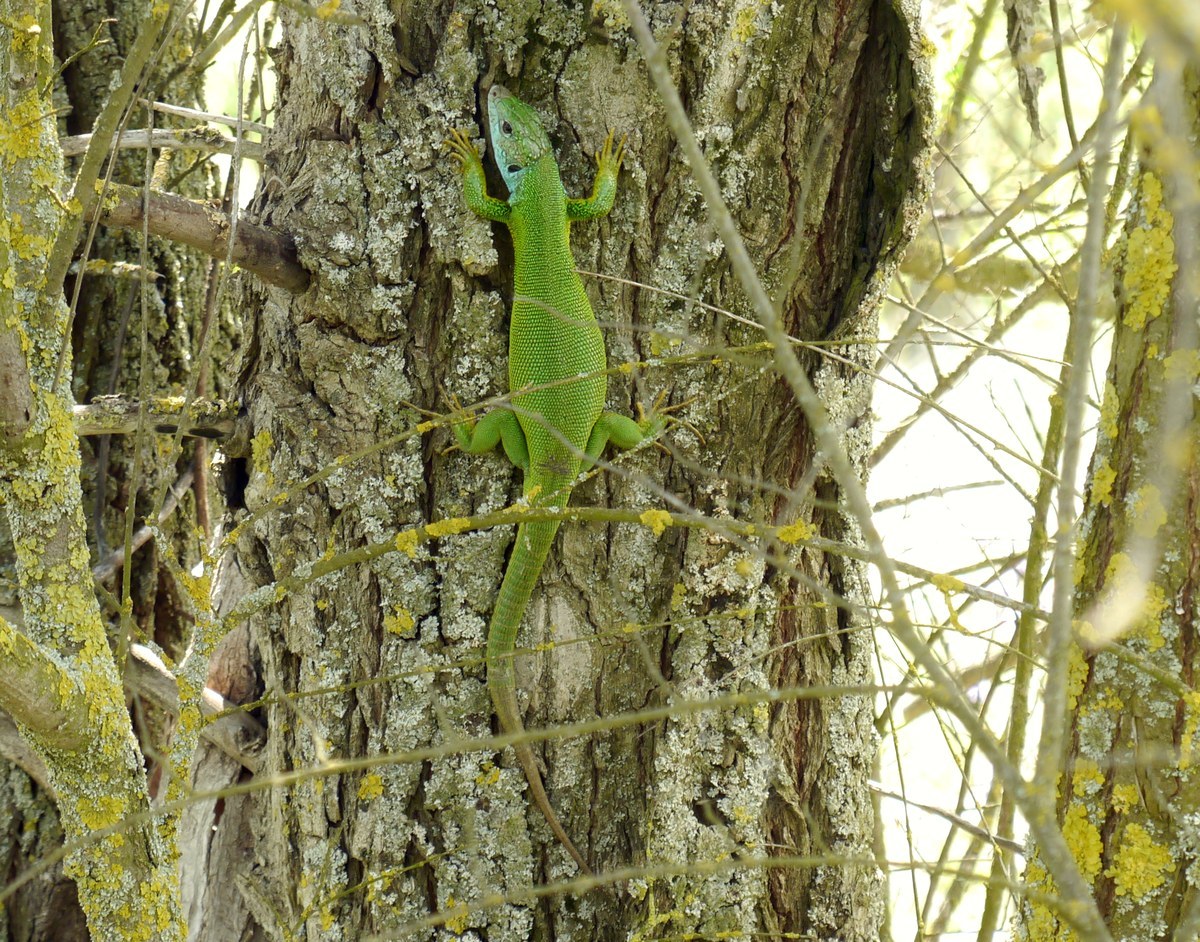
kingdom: Animalia
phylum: Chordata
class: Squamata
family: Lacertidae
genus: Lacerta
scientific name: Lacerta viridis
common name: European green lizard
